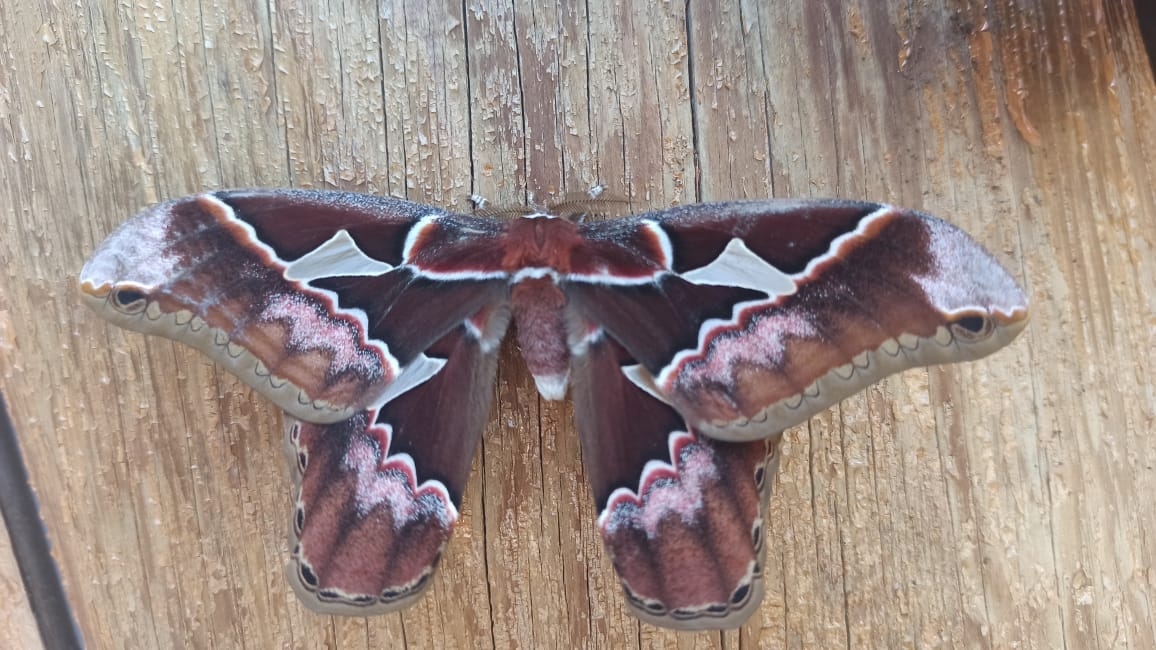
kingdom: Animalia
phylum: Arthropoda
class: Insecta
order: Lepidoptera
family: Saturniidae
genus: Rothschildia
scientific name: Rothschildia orizaba
